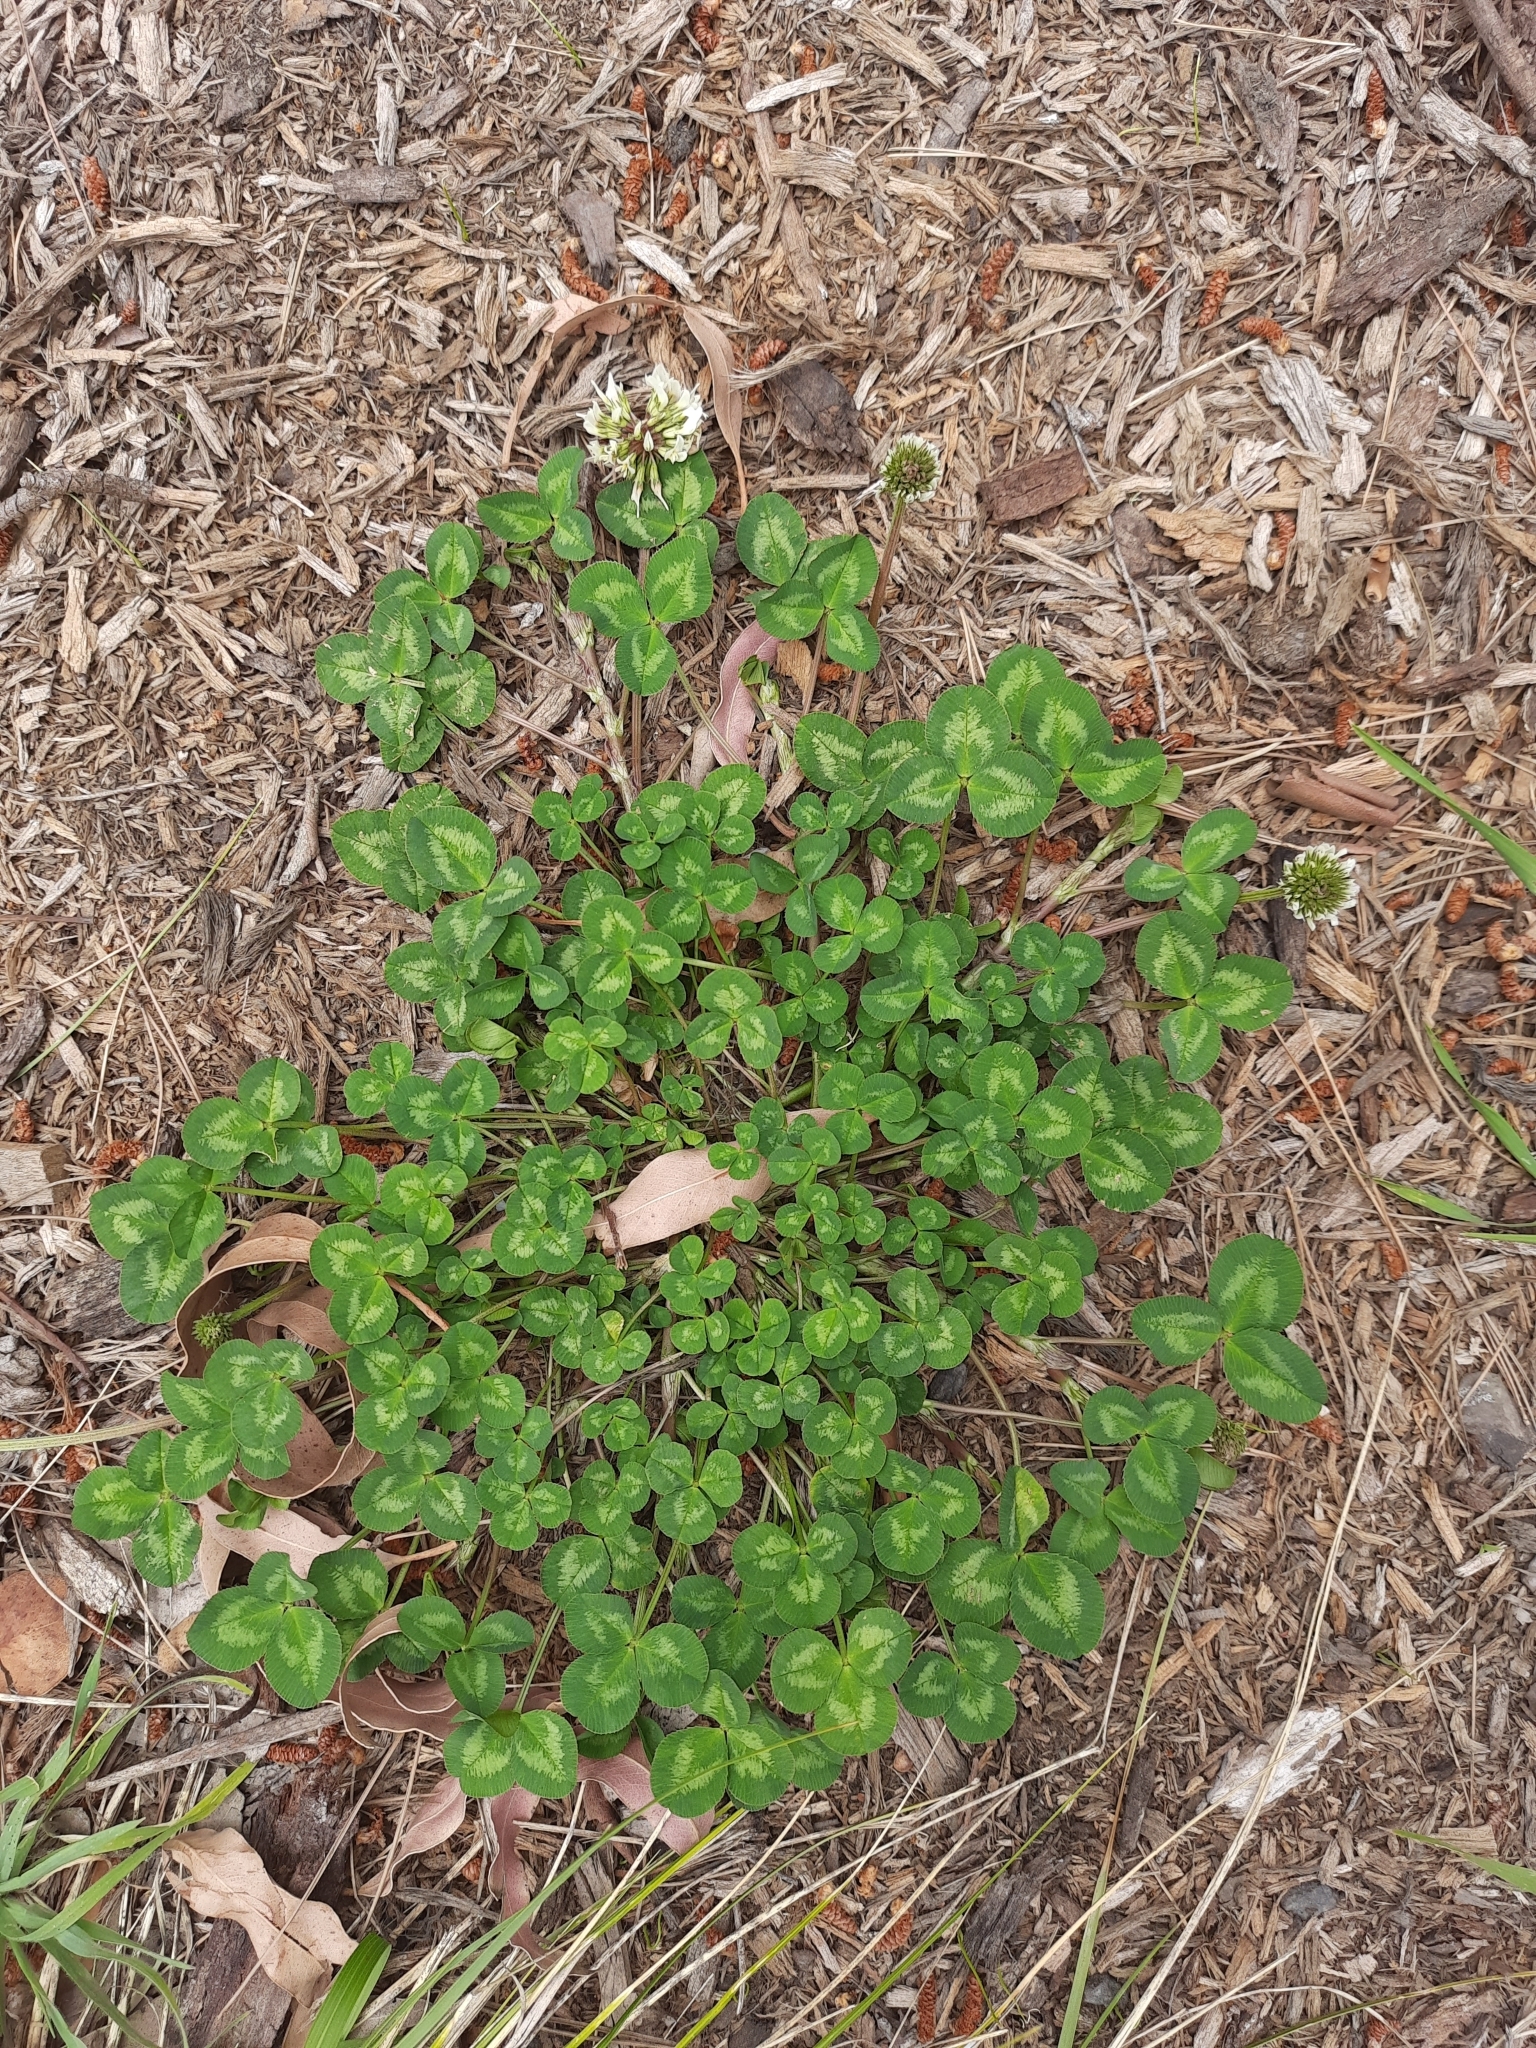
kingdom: Plantae
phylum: Tracheophyta
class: Magnoliopsida
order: Fabales
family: Fabaceae
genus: Trifolium
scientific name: Trifolium repens
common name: White clover
